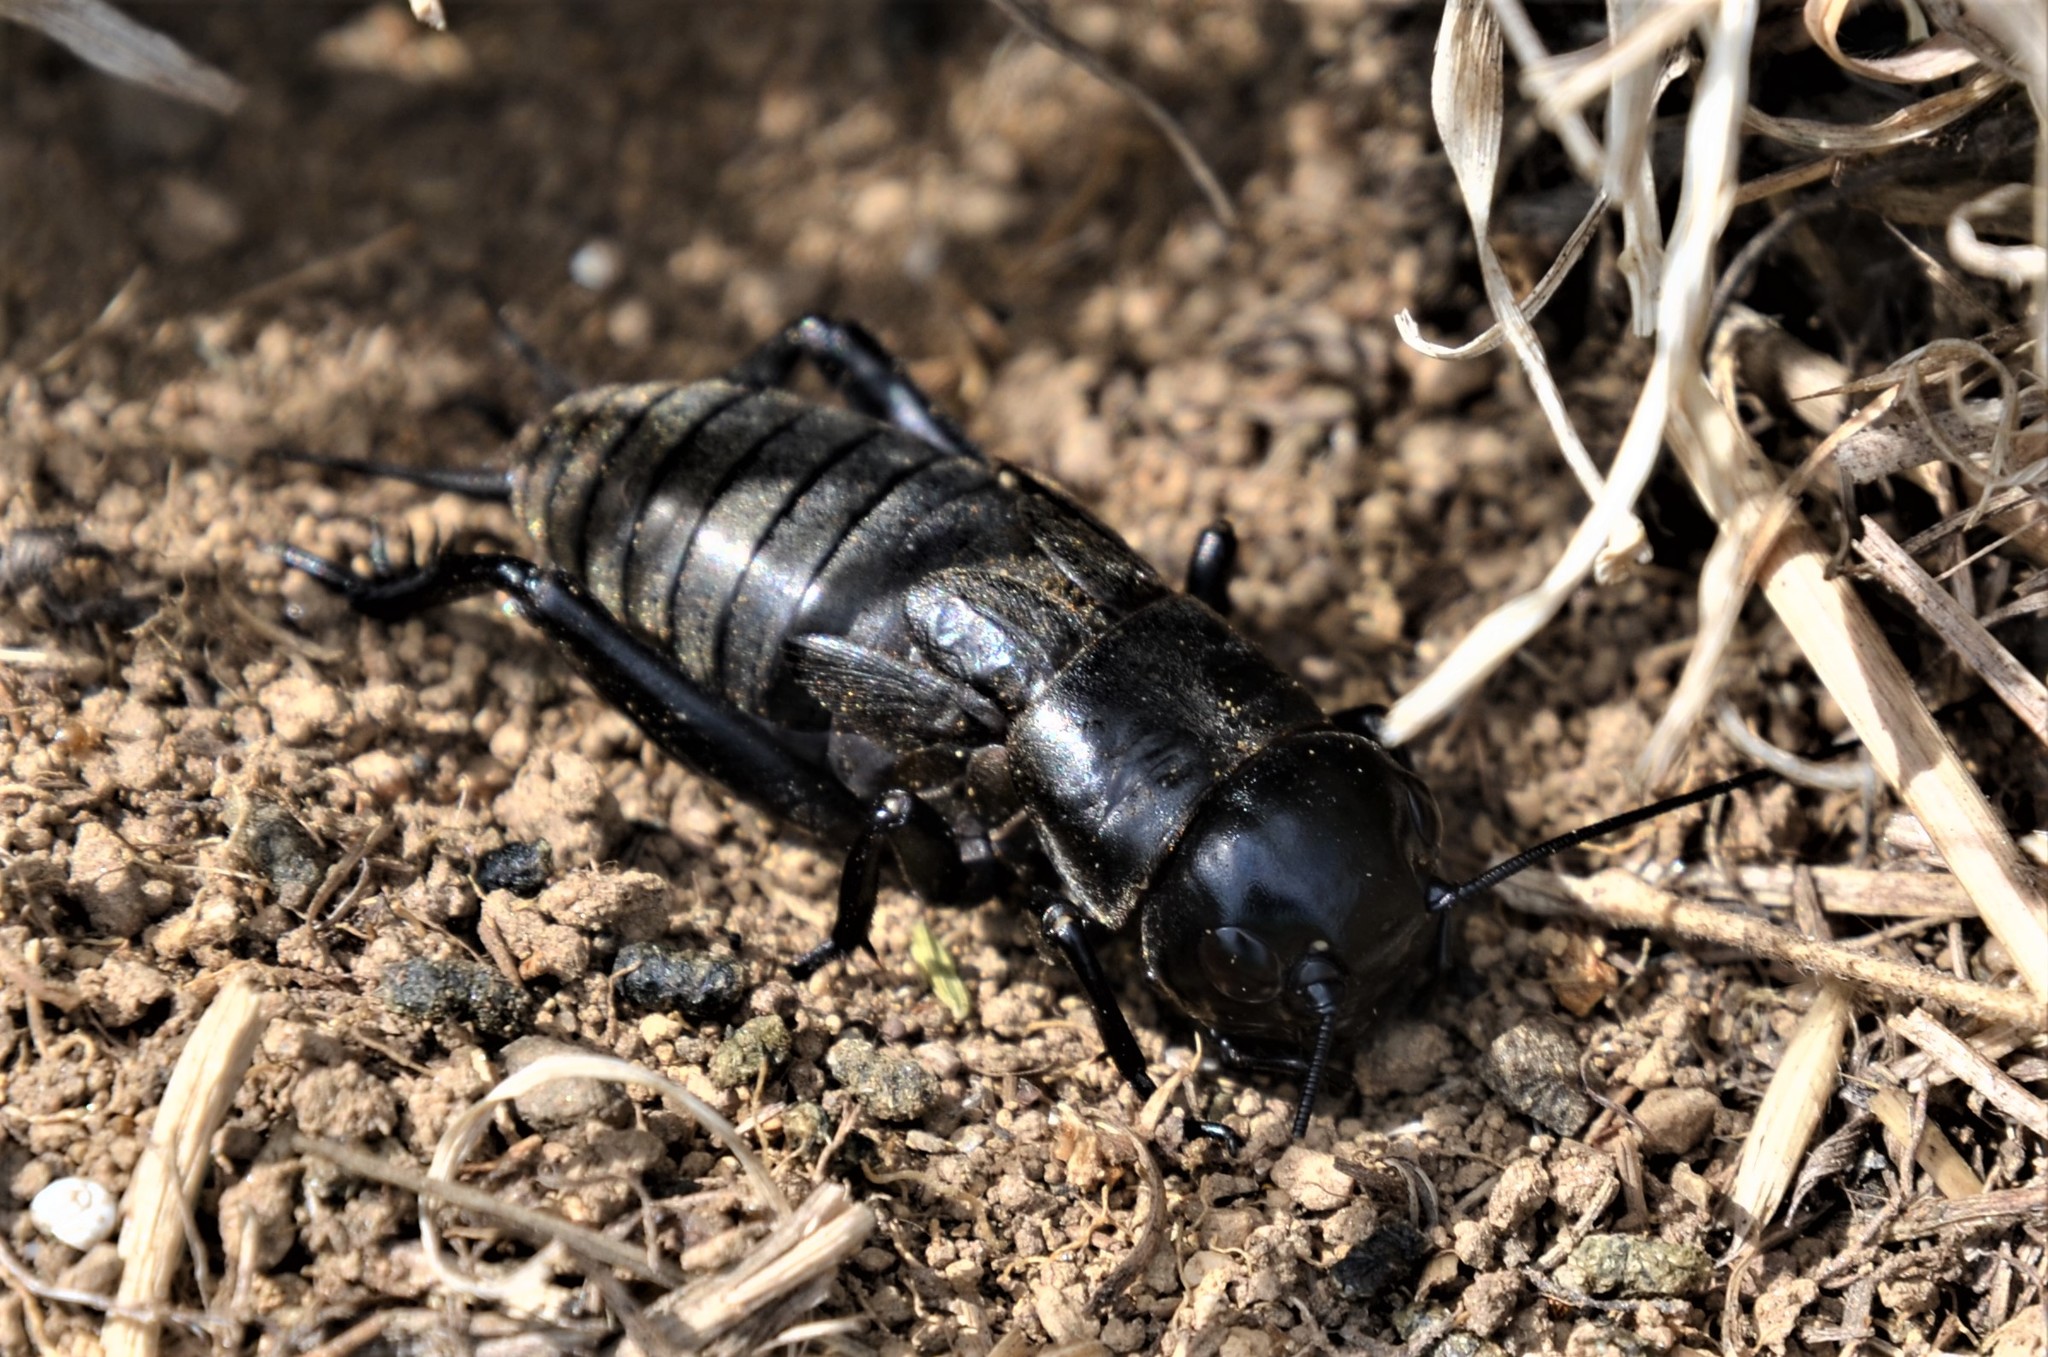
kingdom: Animalia
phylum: Arthropoda
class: Insecta
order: Orthoptera
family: Gryllidae
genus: Gryllus
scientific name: Gryllus campestris
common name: Field cricket
